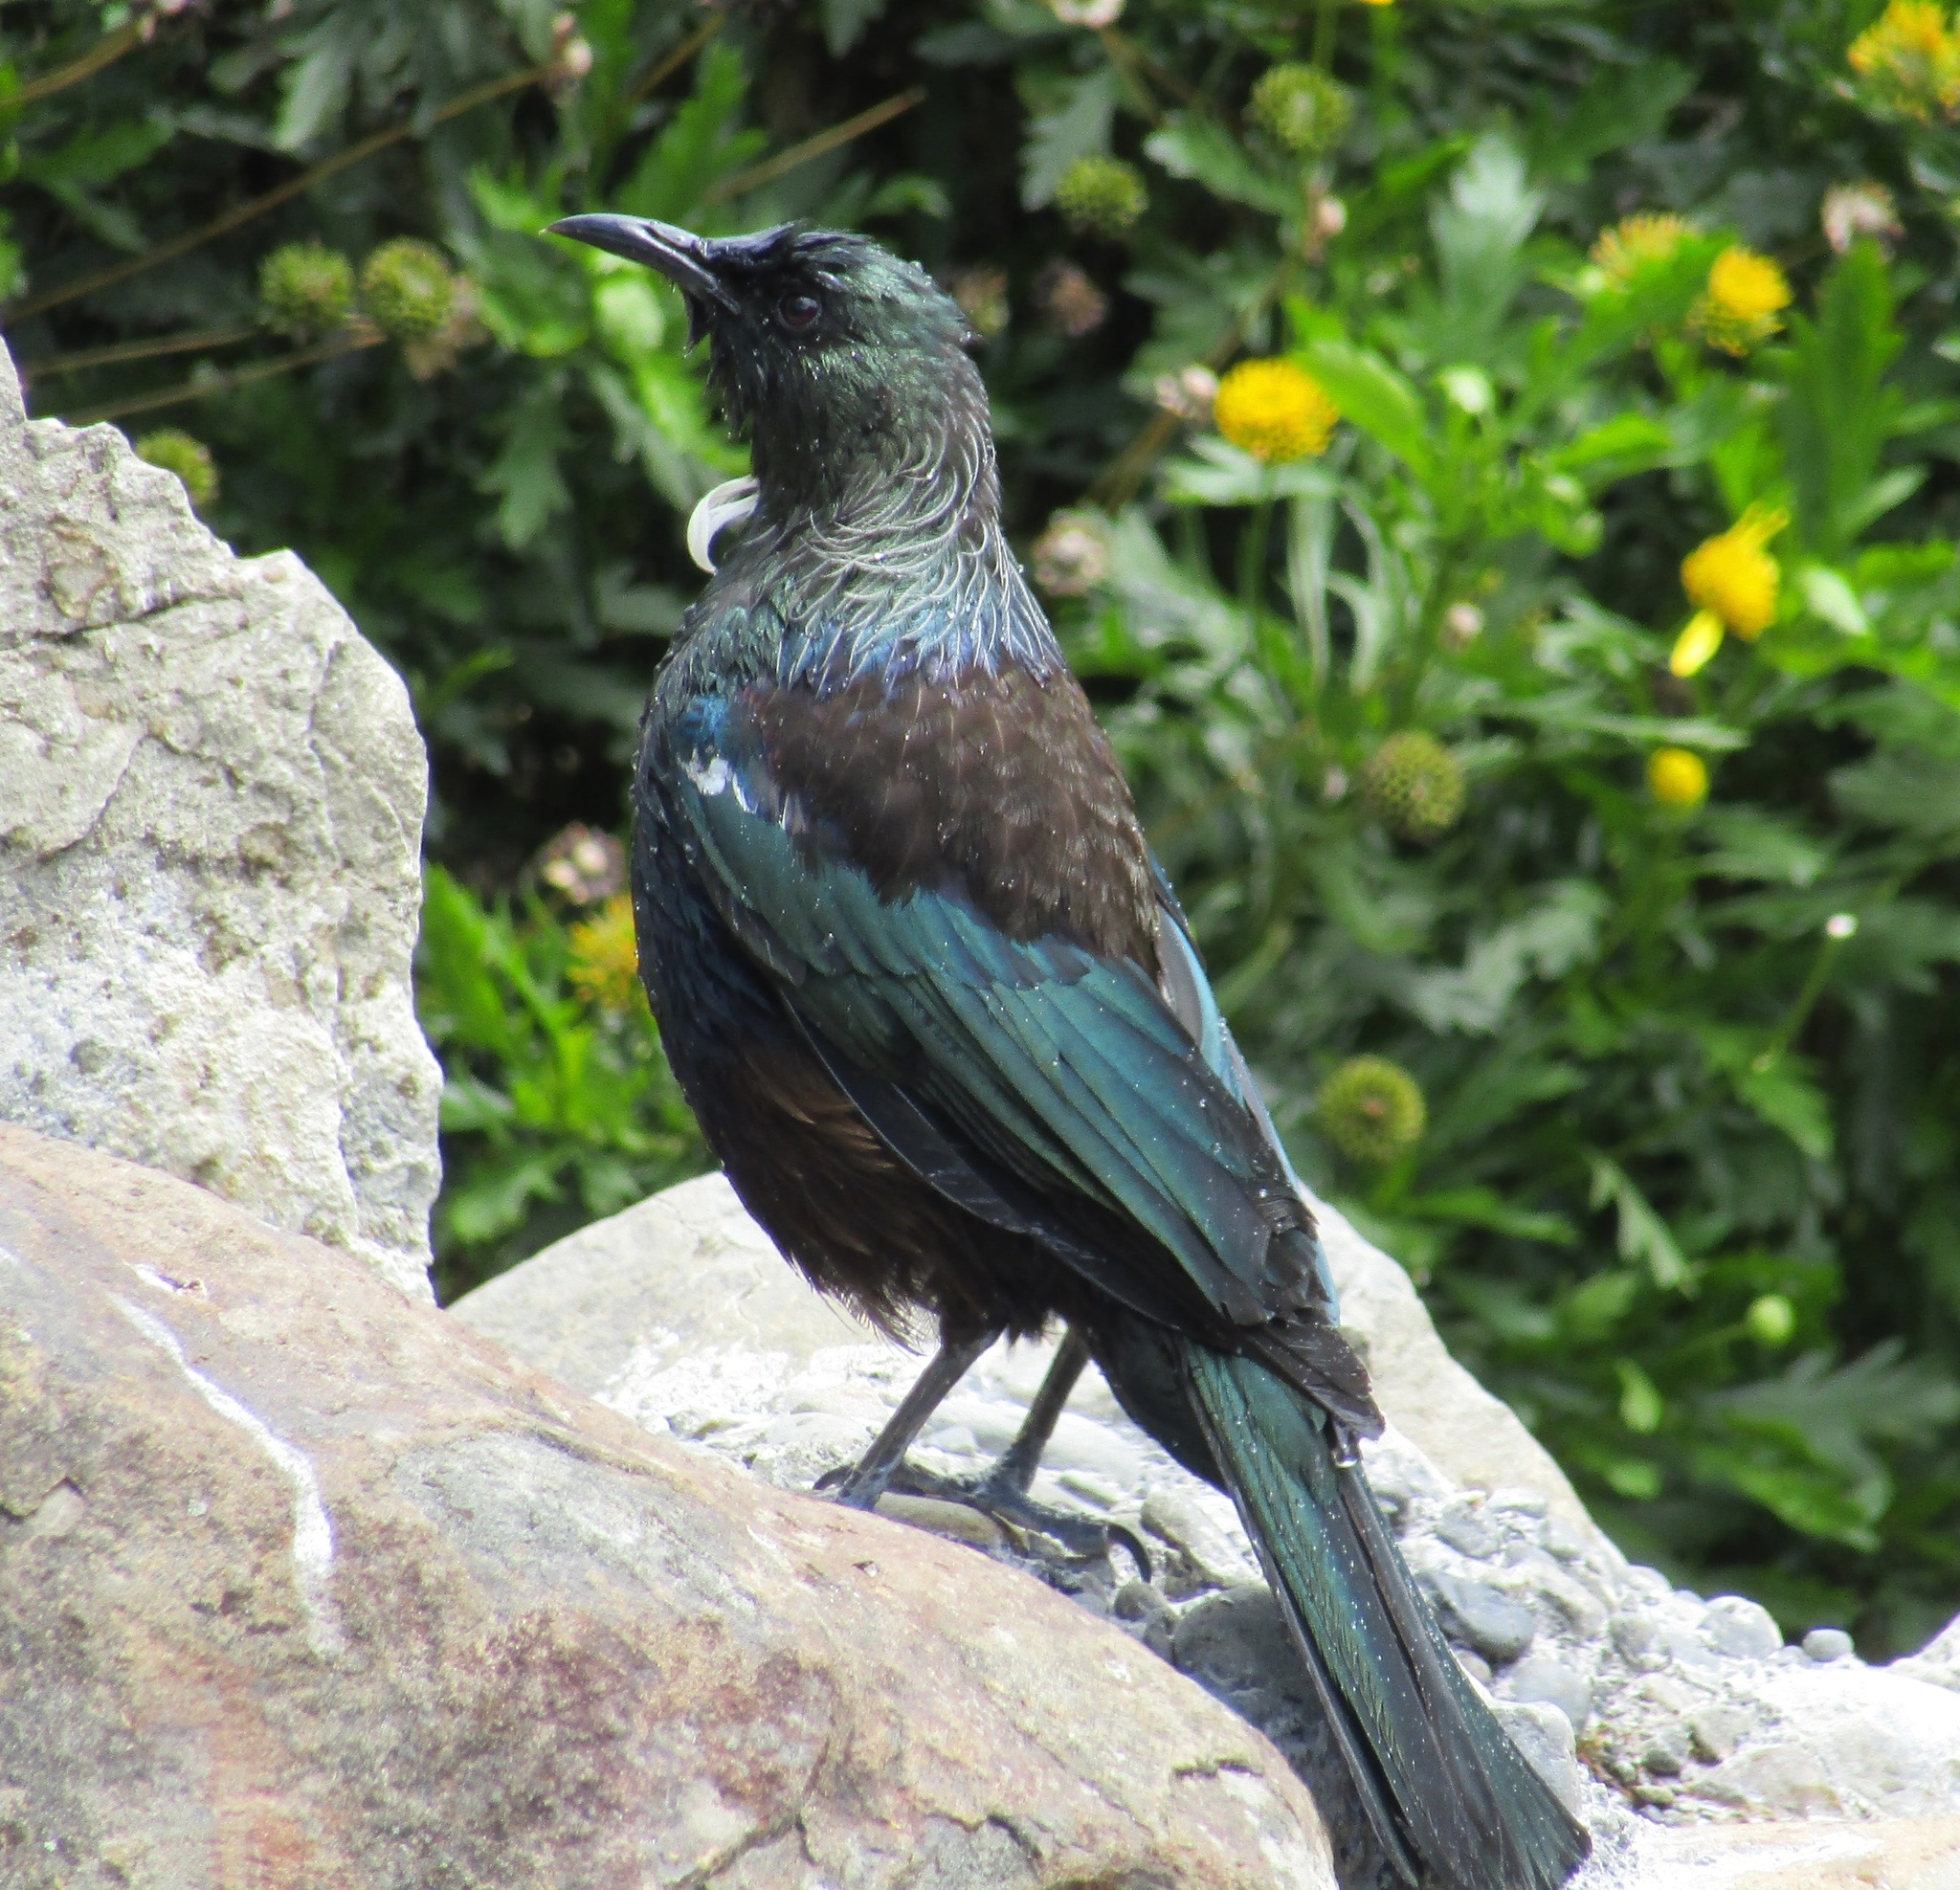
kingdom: Animalia
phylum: Chordata
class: Aves
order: Passeriformes
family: Meliphagidae
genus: Prosthemadera
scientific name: Prosthemadera novaeseelandiae
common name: Tui
